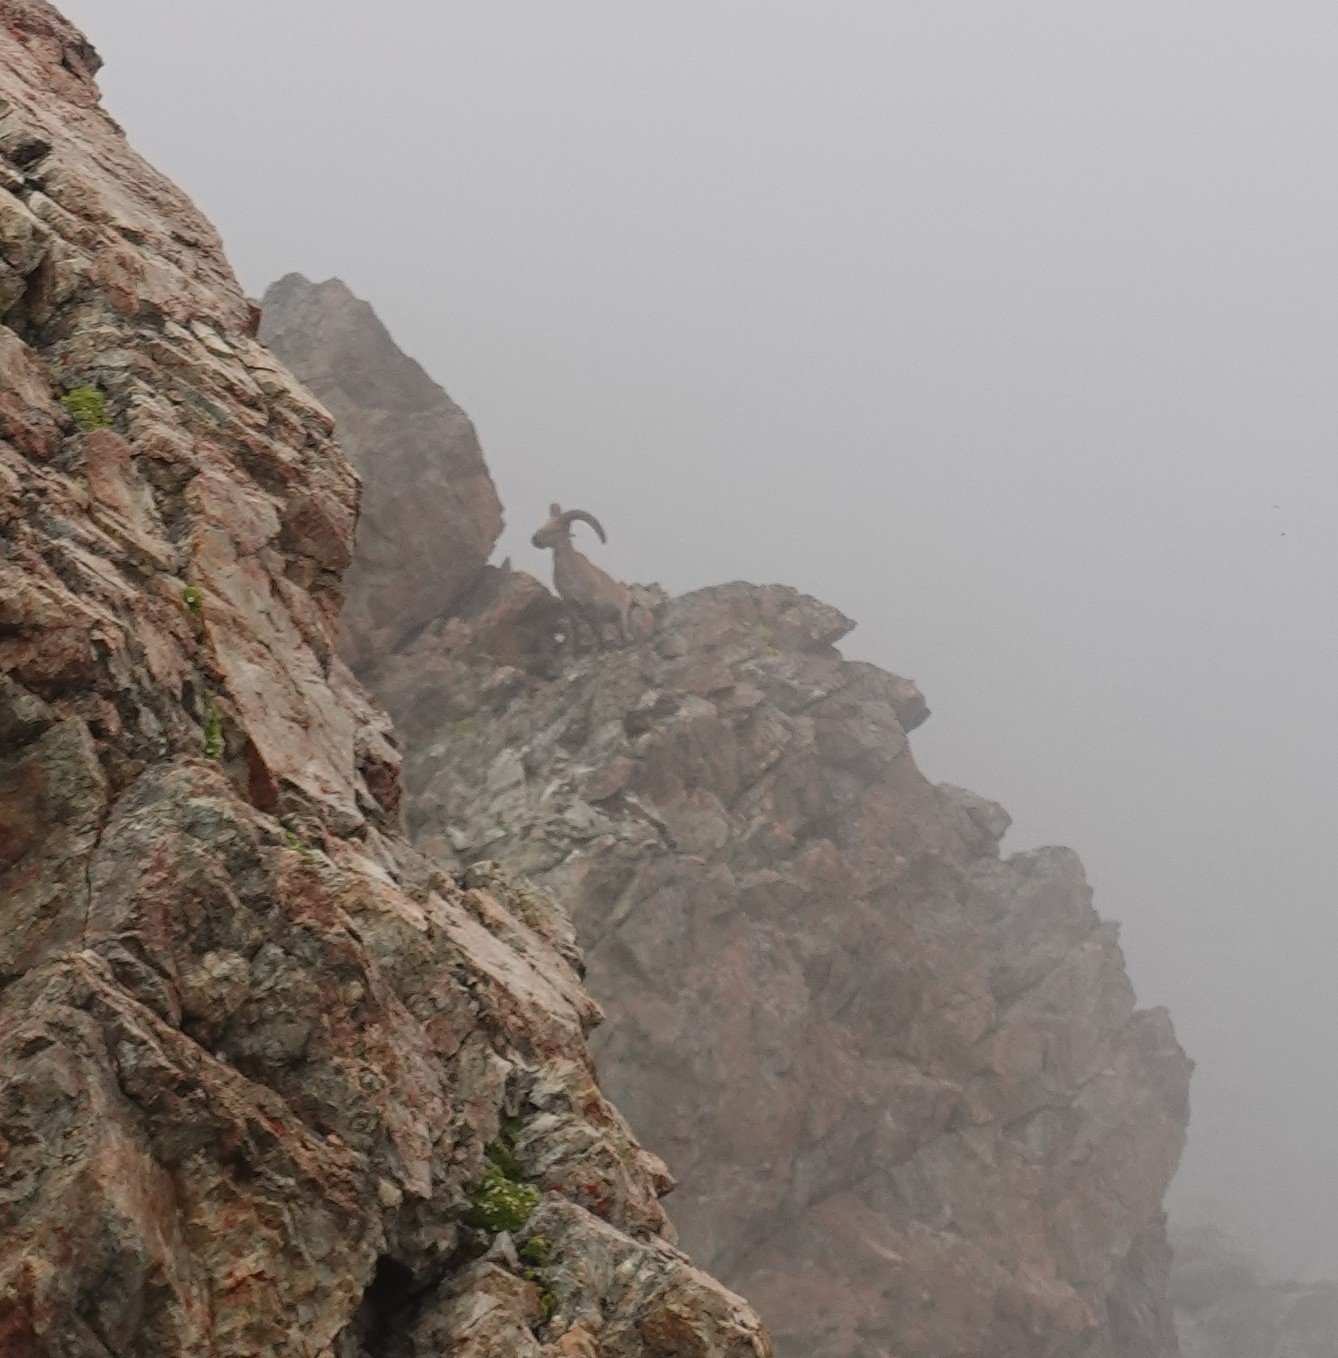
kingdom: Animalia
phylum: Chordata
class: Mammalia
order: Artiodactyla
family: Bovidae
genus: Capra
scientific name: Capra caucasica
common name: Tur
